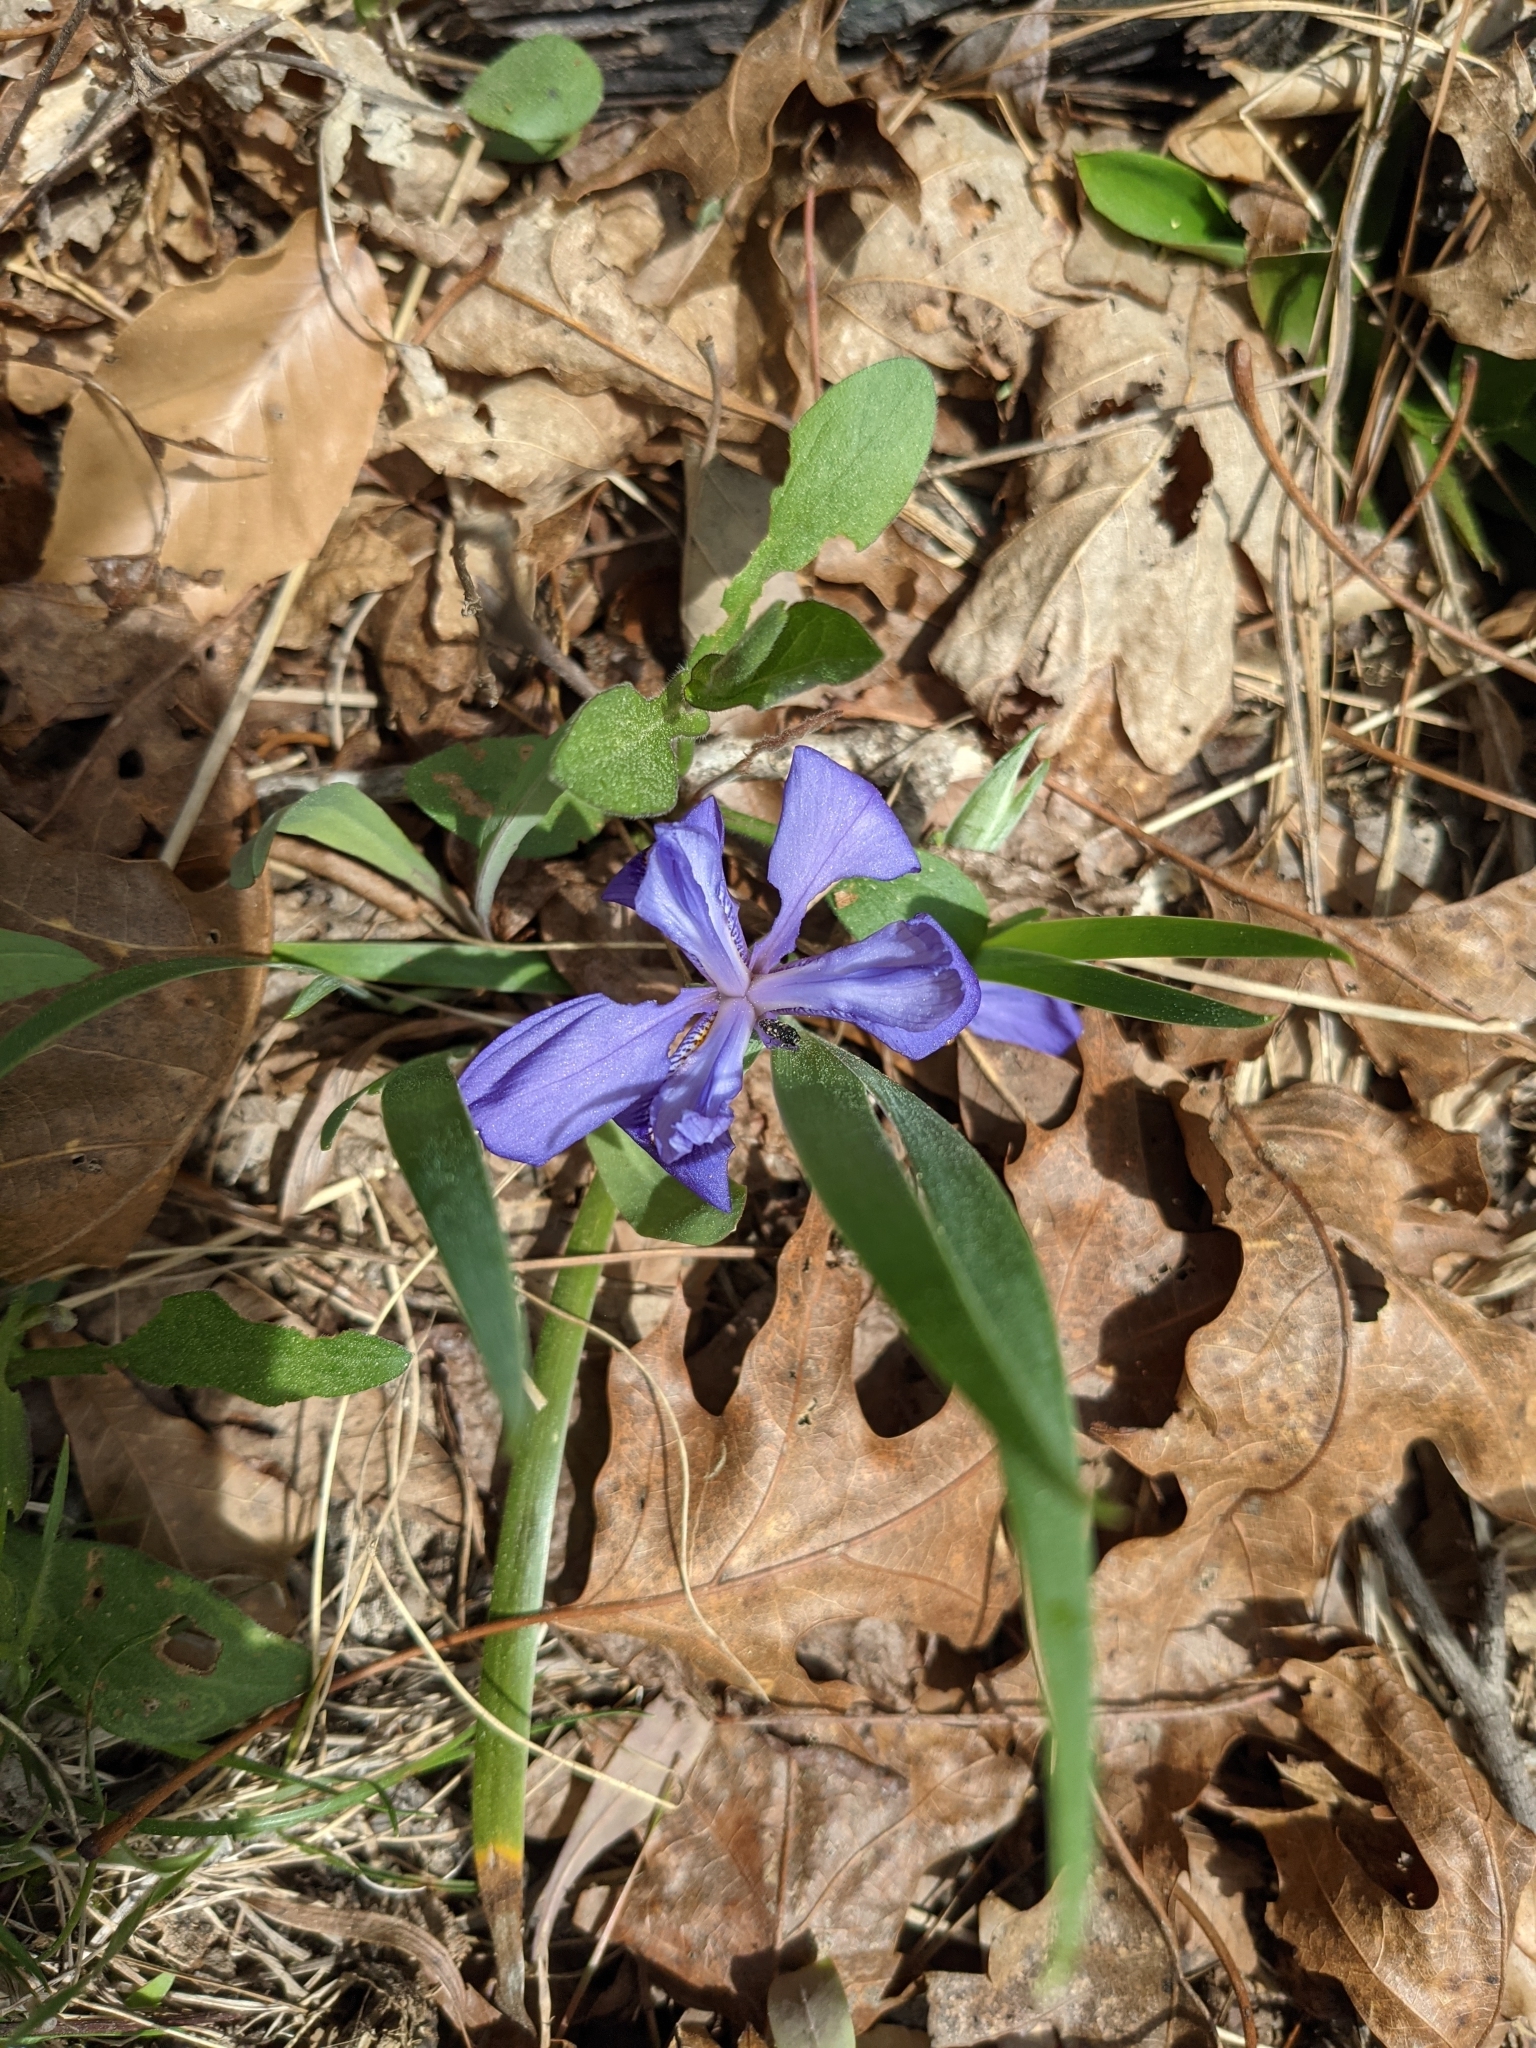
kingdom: Plantae
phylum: Tracheophyta
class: Liliopsida
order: Asparagales
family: Iridaceae
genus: Iris
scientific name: Iris verna
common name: Dwarf iris
